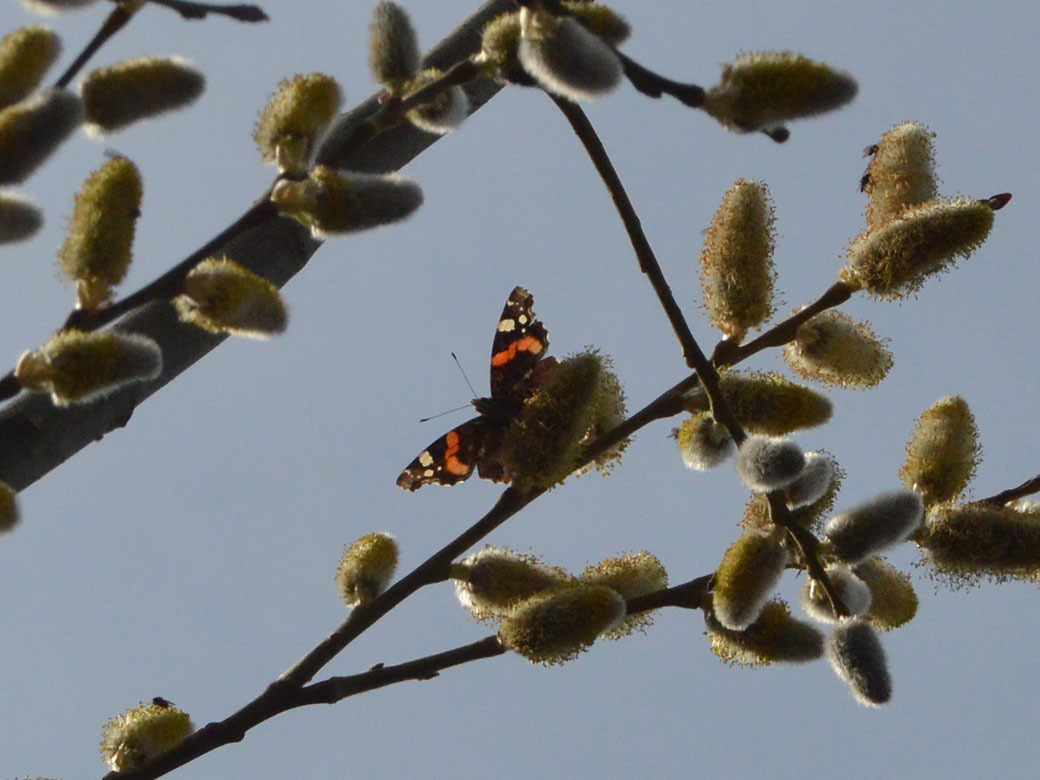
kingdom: Animalia
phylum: Arthropoda
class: Insecta
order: Lepidoptera
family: Nymphalidae
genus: Vanessa
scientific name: Vanessa atalanta
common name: Red admiral
